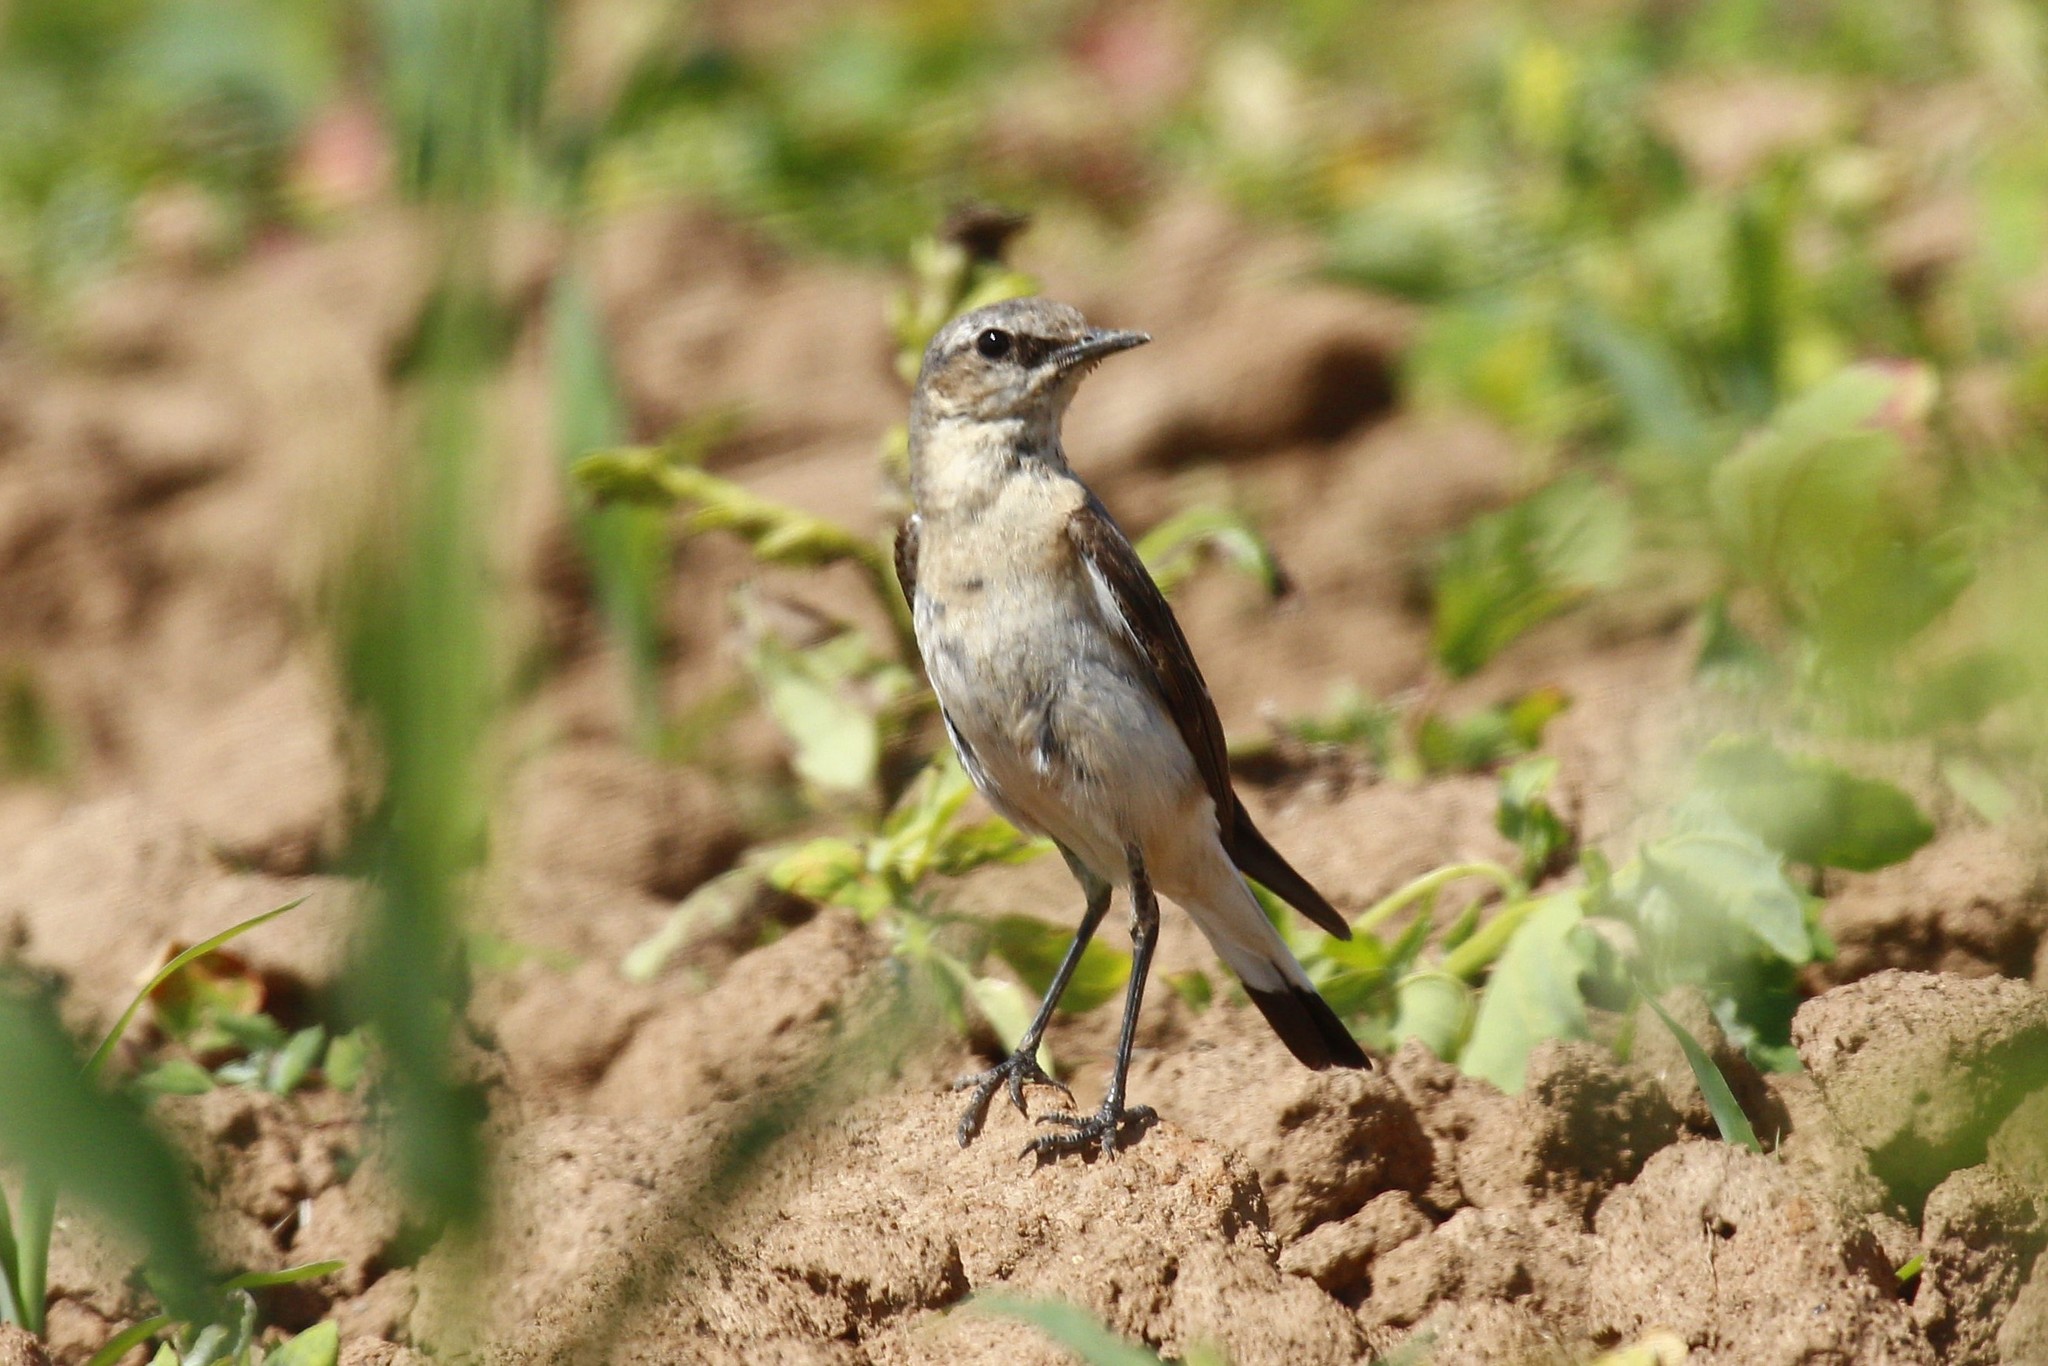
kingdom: Animalia
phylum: Chordata
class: Aves
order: Passeriformes
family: Muscicapidae
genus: Oenanthe
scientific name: Oenanthe oenanthe
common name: Northern wheatear
